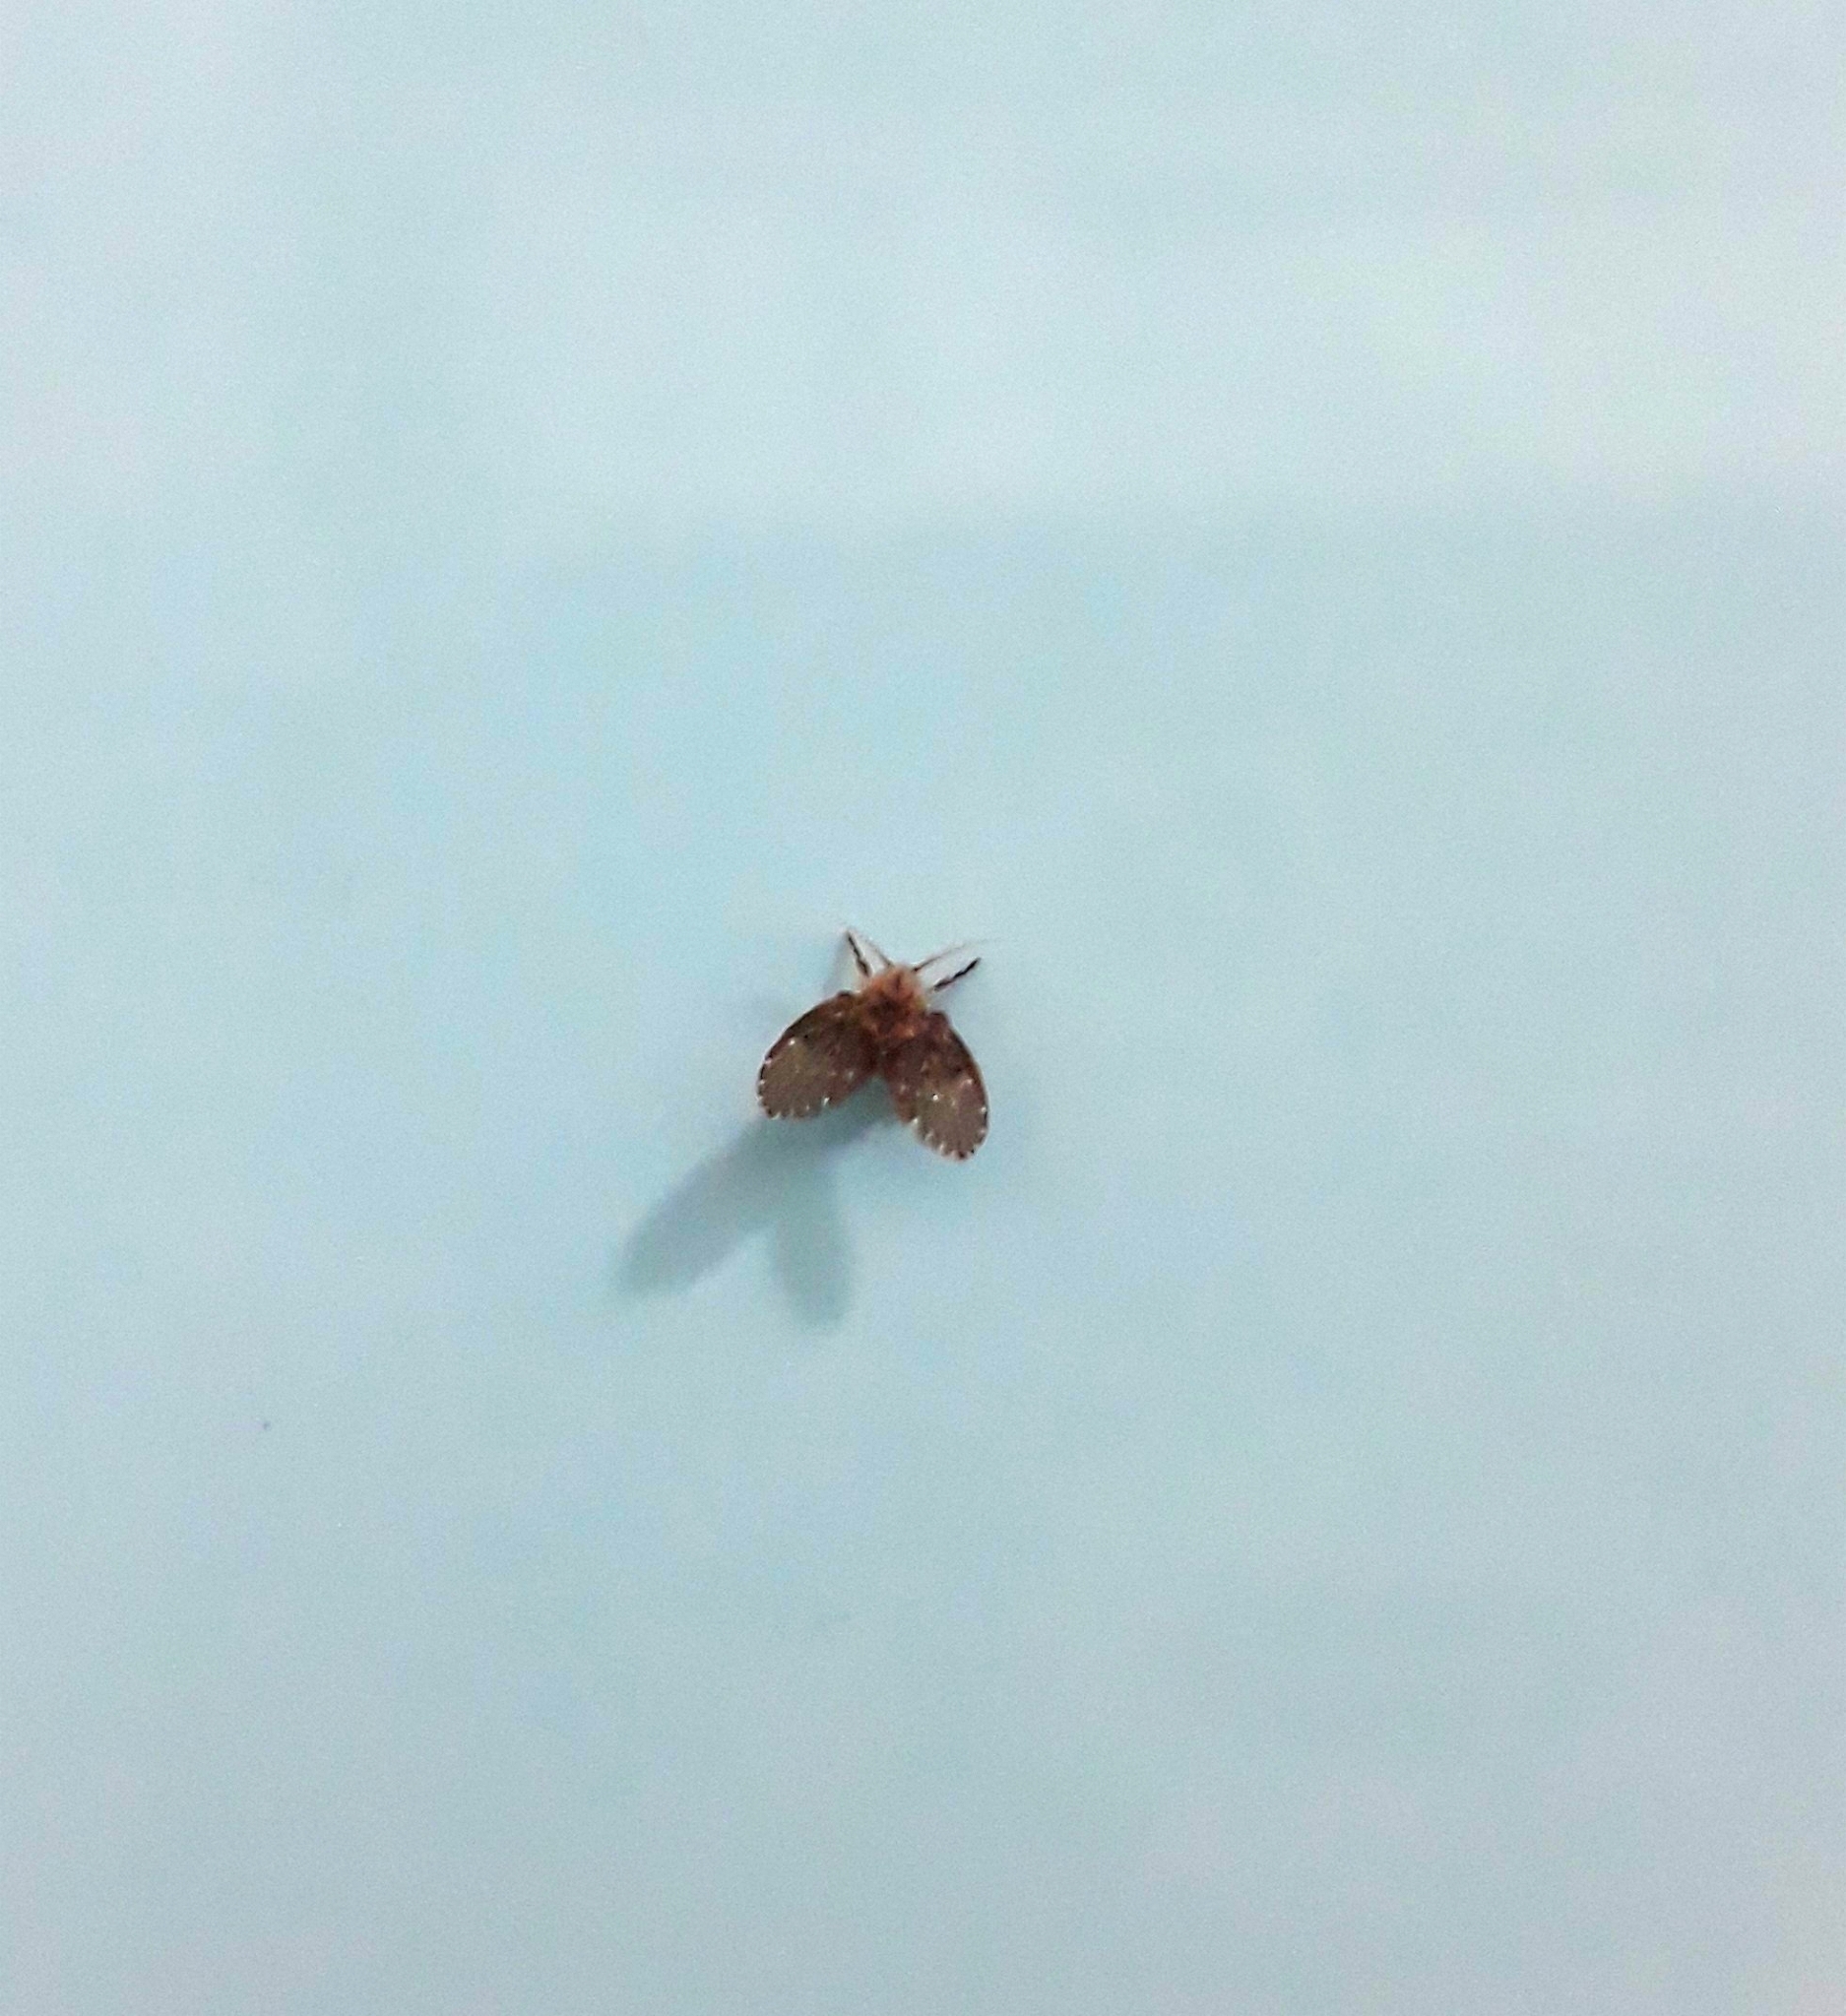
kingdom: Animalia
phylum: Arthropoda
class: Insecta
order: Diptera
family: Psychodidae
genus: Clogmia
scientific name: Clogmia albipunctatus
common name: White-spotted moth fly
